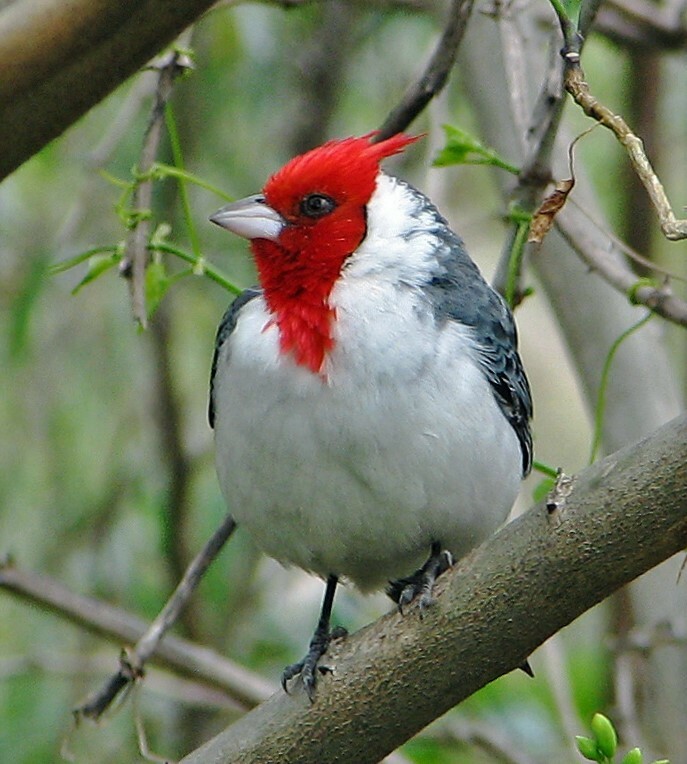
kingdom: Animalia
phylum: Chordata
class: Aves
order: Passeriformes
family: Thraupidae
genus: Paroaria
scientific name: Paroaria coronata
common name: Red-crested cardinal
